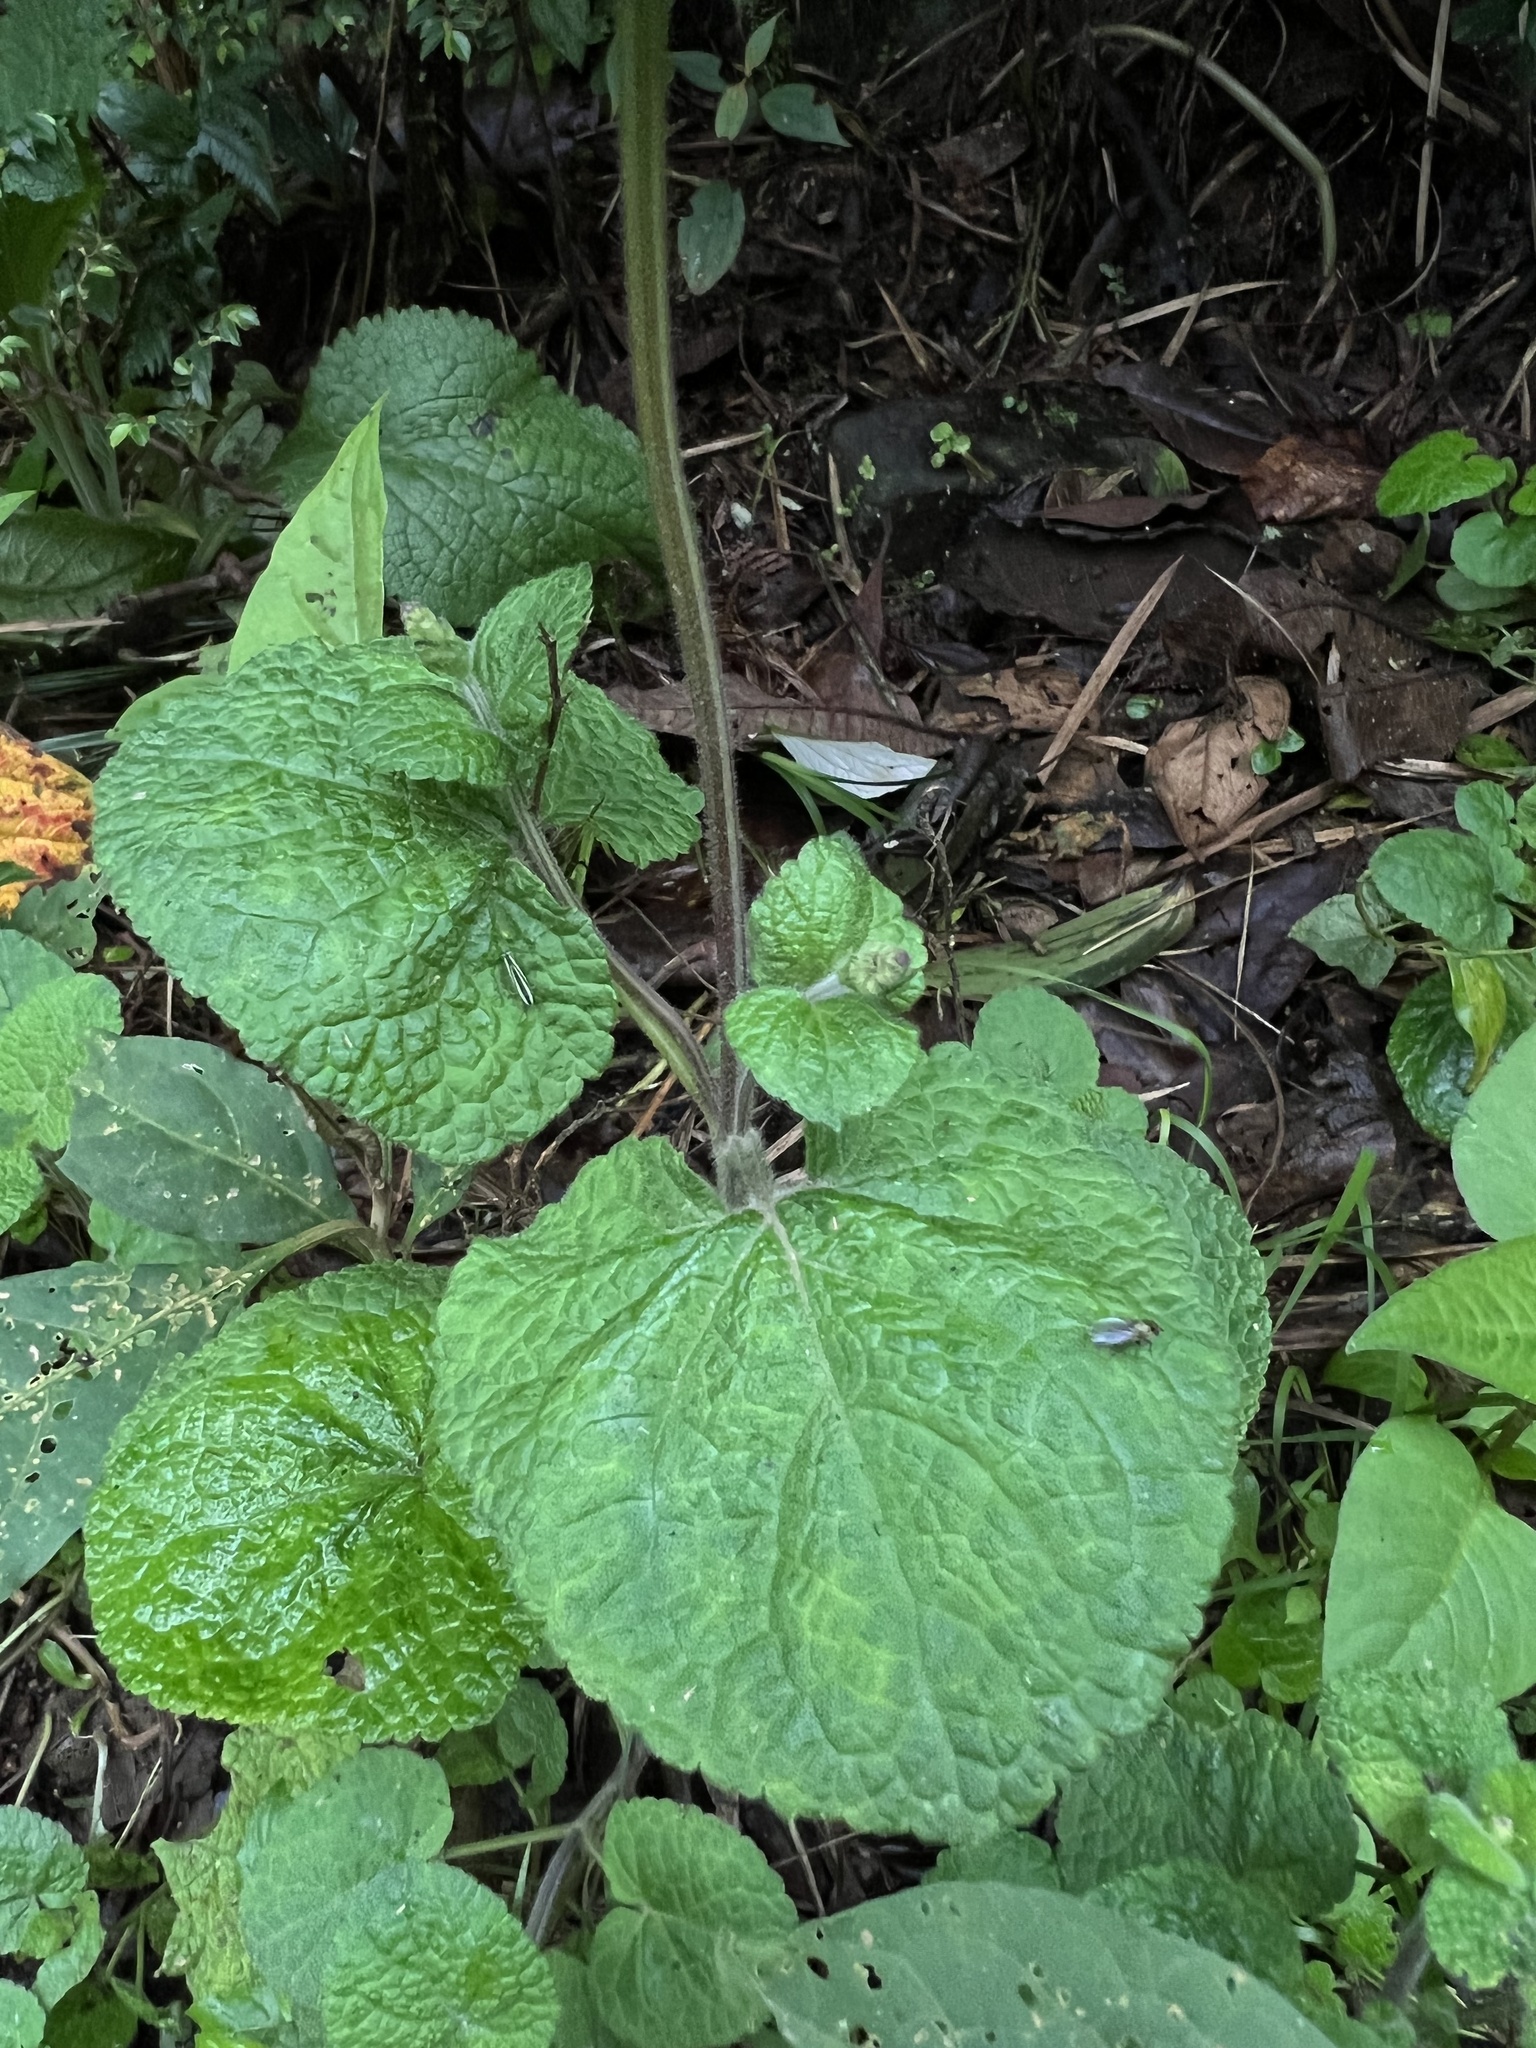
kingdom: Plantae
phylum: Tracheophyta
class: Magnoliopsida
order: Lamiales
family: Lamiaceae
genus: Salvia
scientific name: Salvia palifolia
